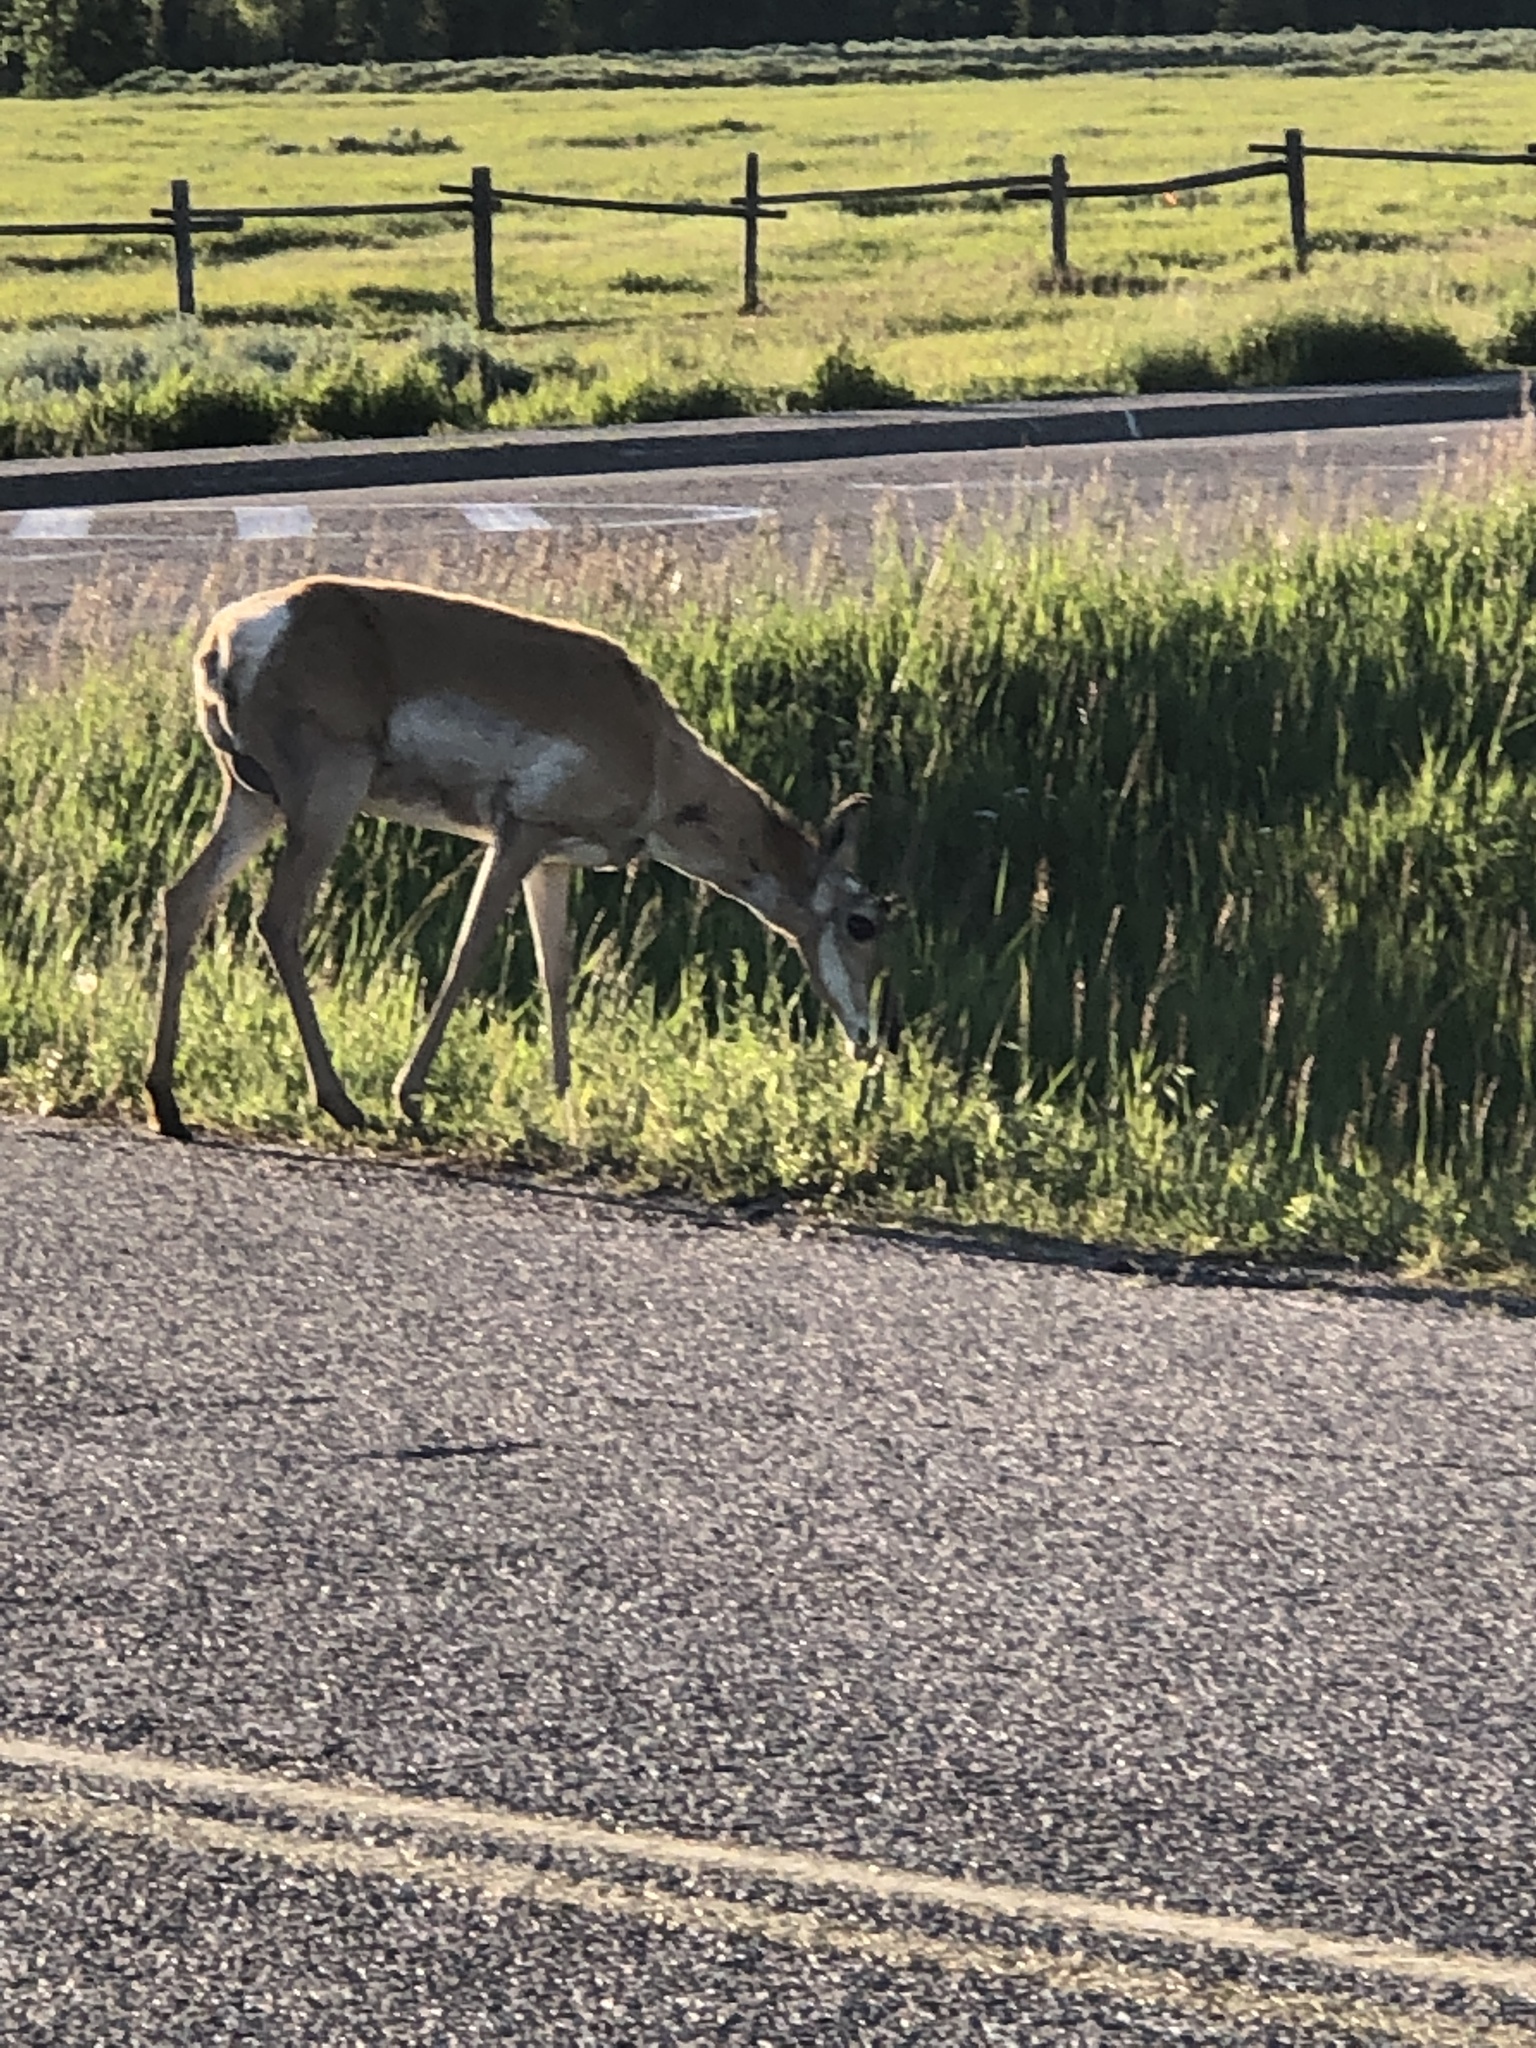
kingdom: Animalia
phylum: Chordata
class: Mammalia
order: Artiodactyla
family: Antilocapridae
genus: Antilocapra
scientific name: Antilocapra americana
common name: Pronghorn
